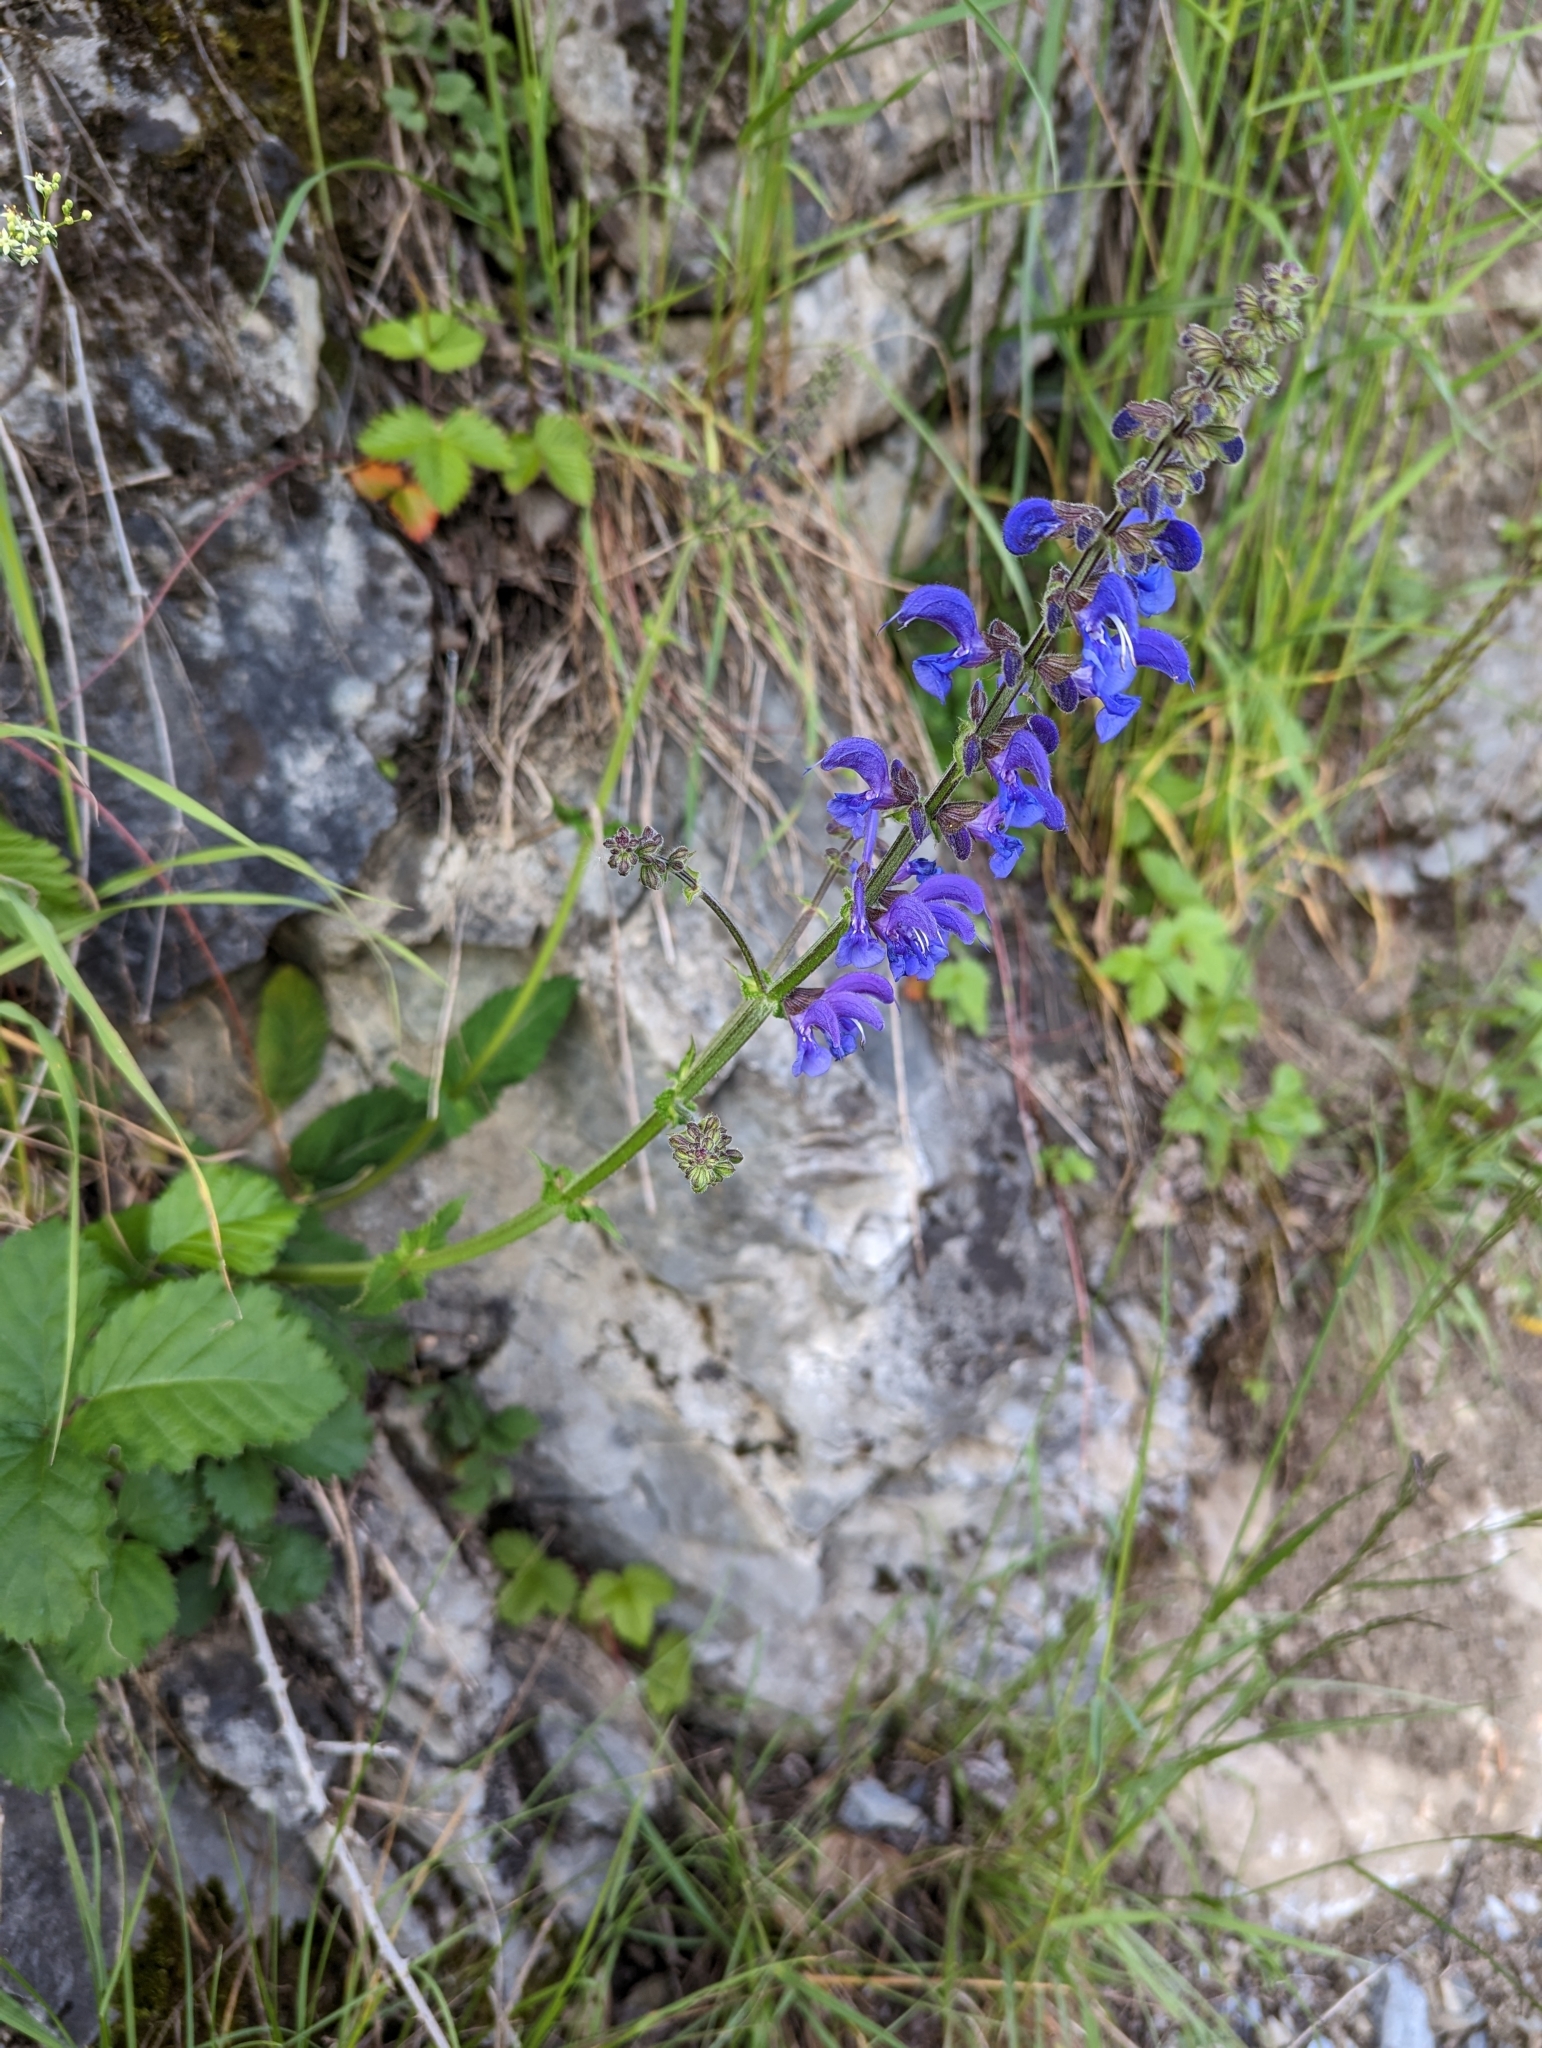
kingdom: Plantae
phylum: Tracheophyta
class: Magnoliopsida
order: Lamiales
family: Lamiaceae
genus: Salvia
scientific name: Salvia pratensis
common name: Meadow sage
